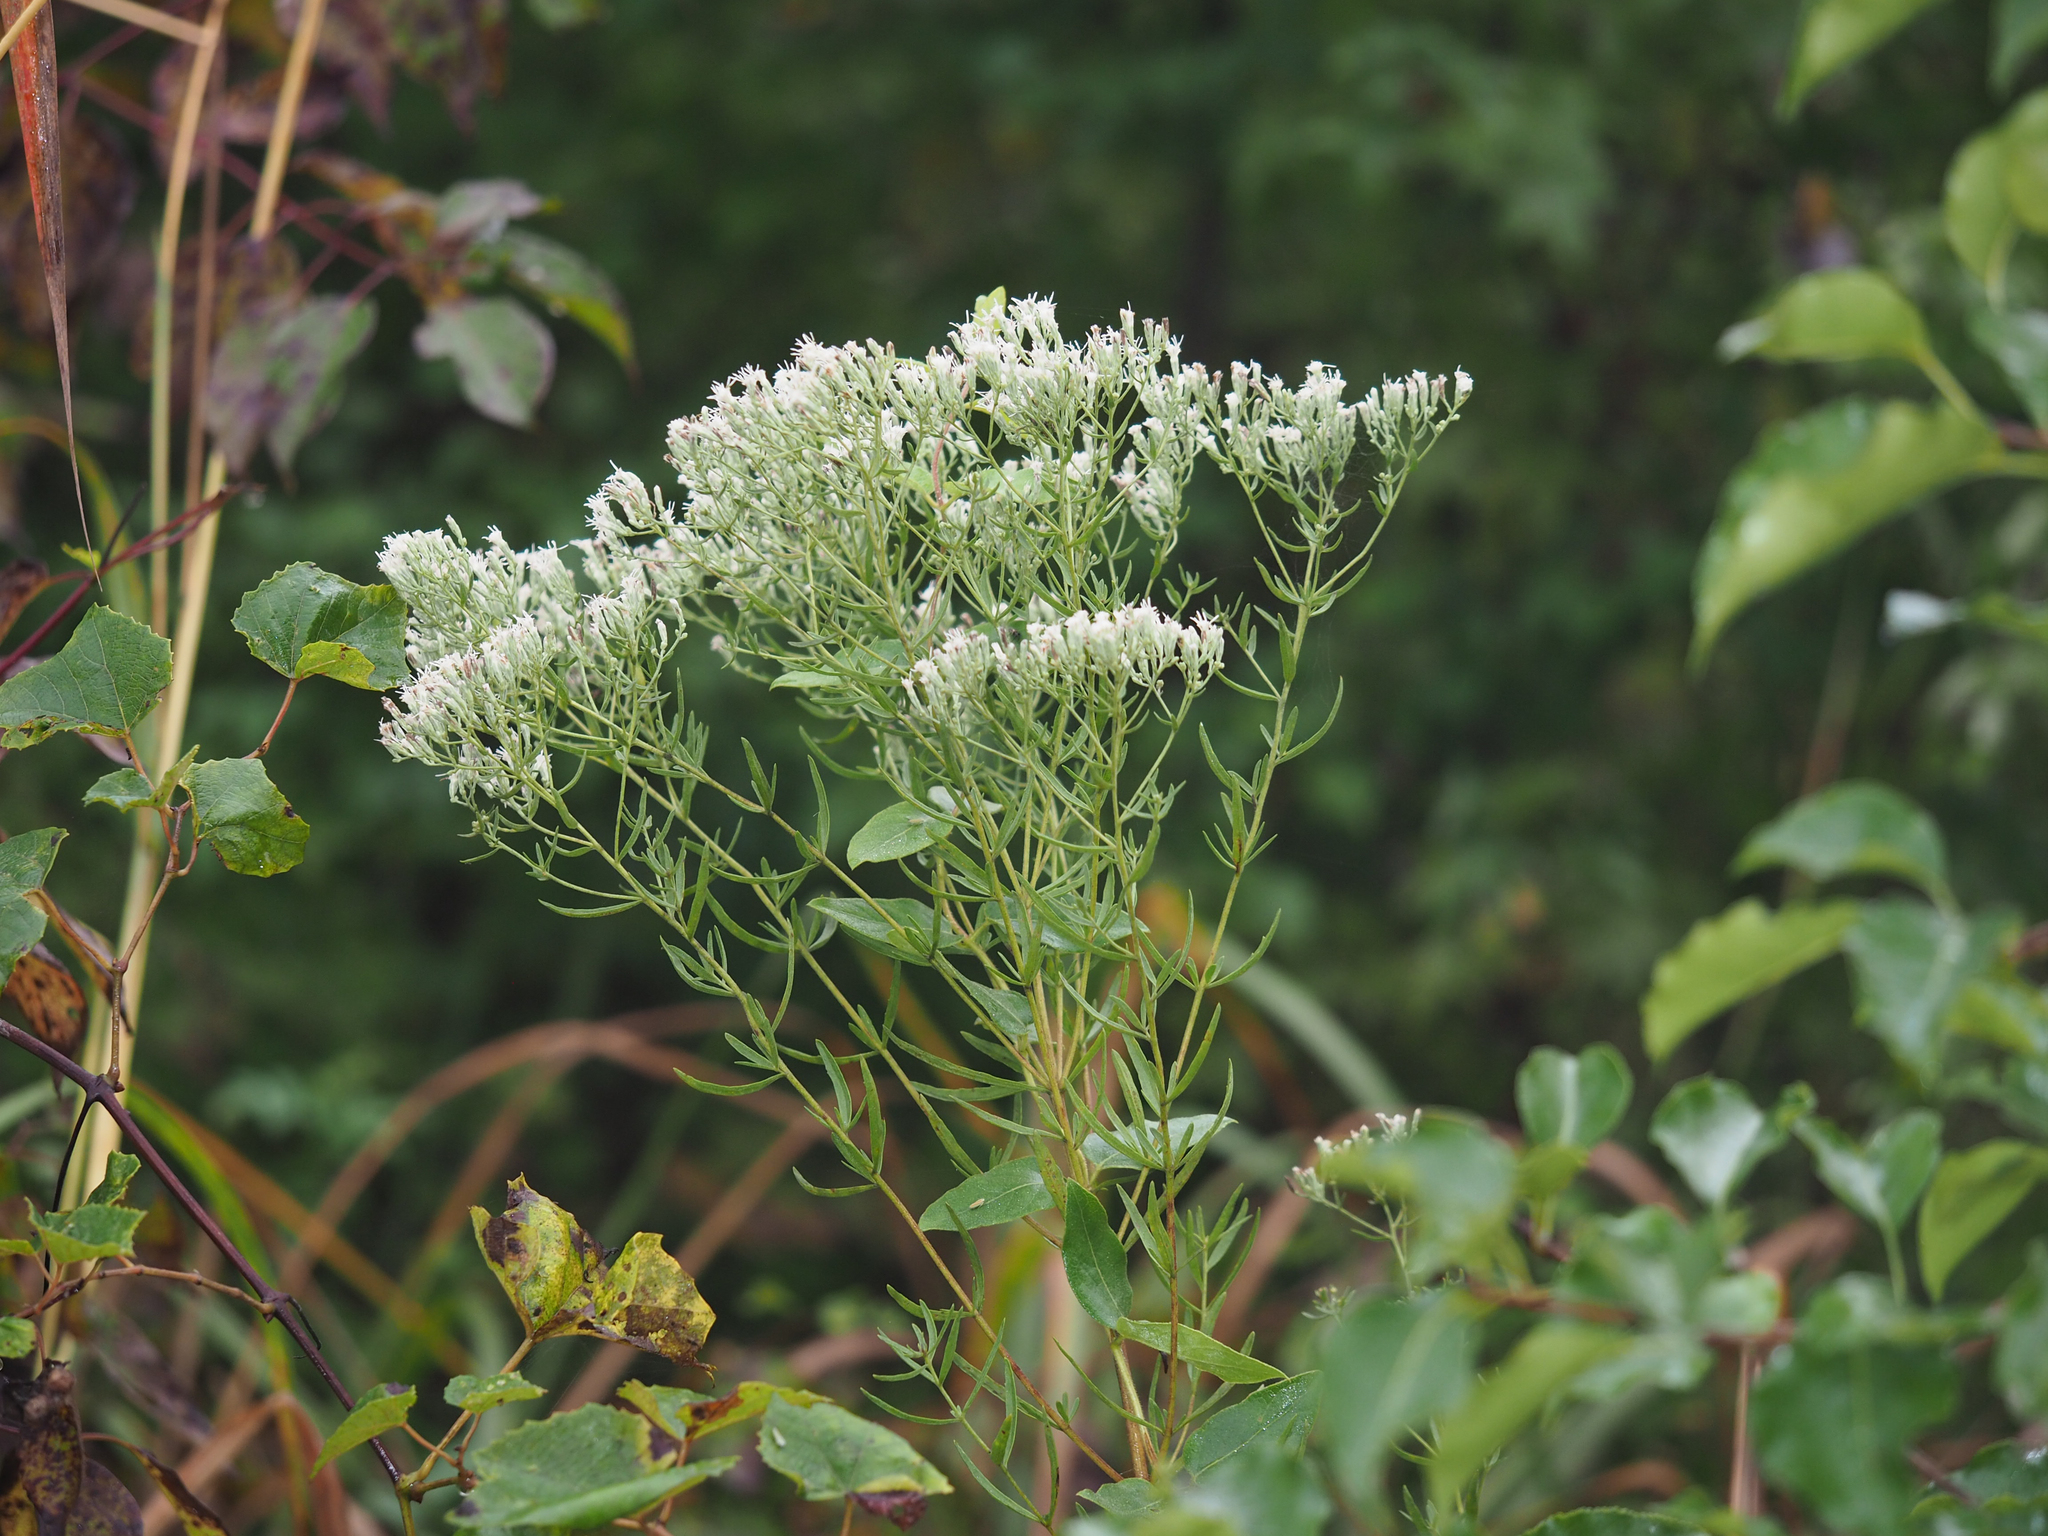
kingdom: Plantae
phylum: Tracheophyta
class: Magnoliopsida
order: Asterales
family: Asteraceae
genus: Eupatorium
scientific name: Eupatorium hyssopifolium
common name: Hyssop-leaf thoroughwort
